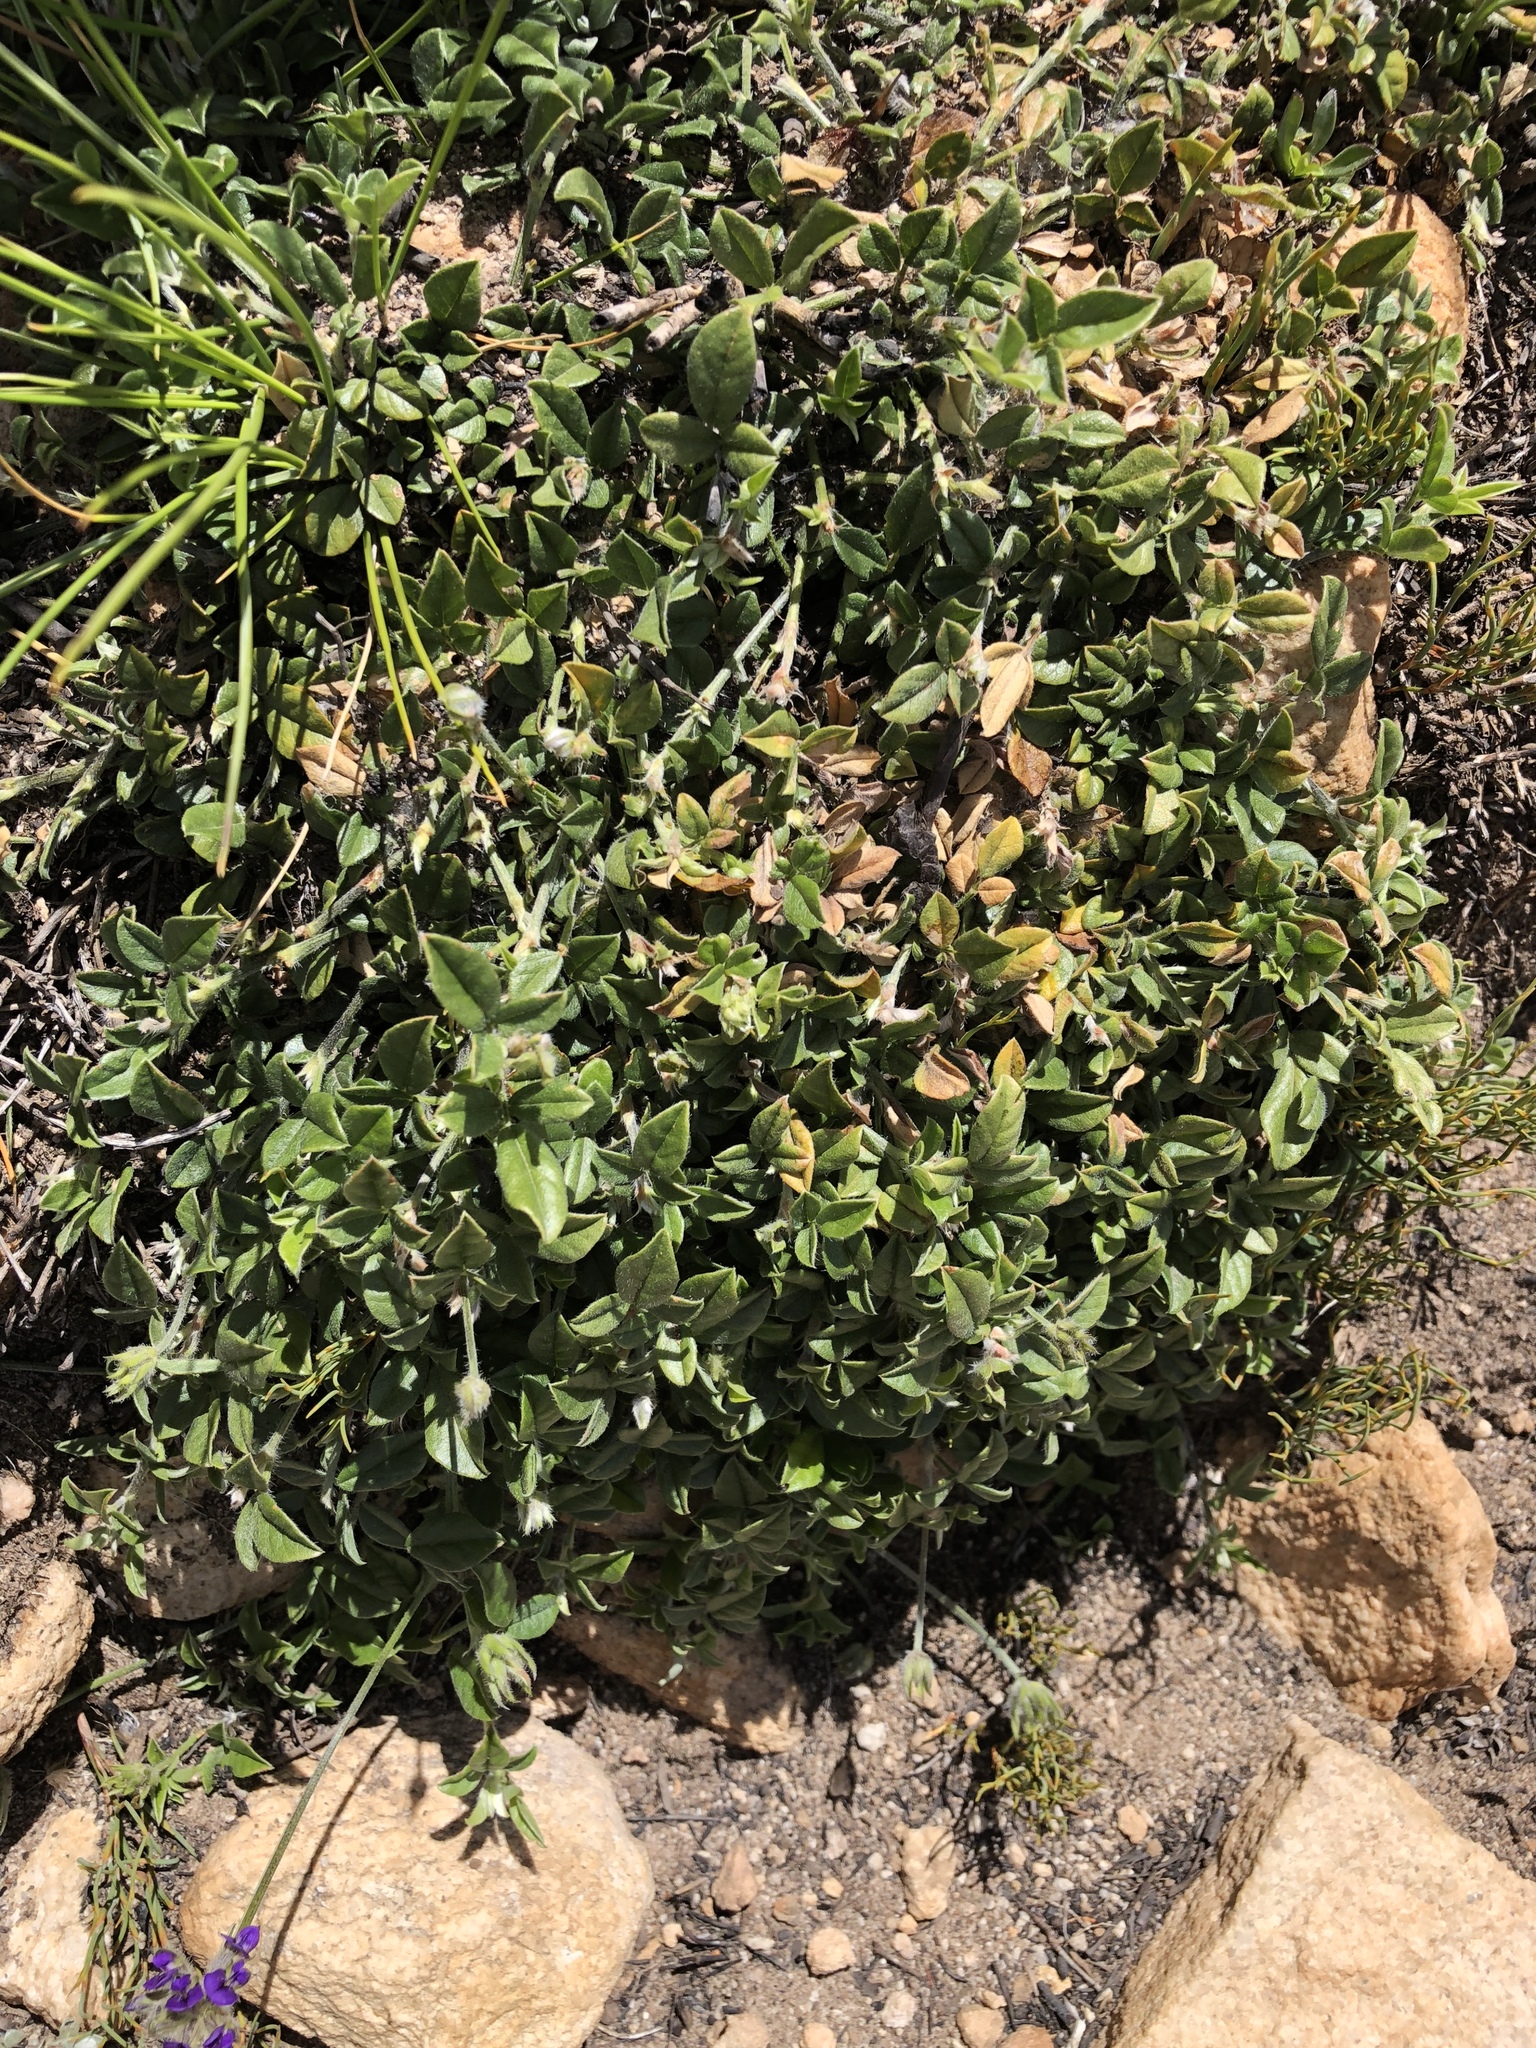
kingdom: Plantae
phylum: Tracheophyta
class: Magnoliopsida
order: Fabales
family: Fabaceae
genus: Psoralea
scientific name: Psoralea swartbergensis
